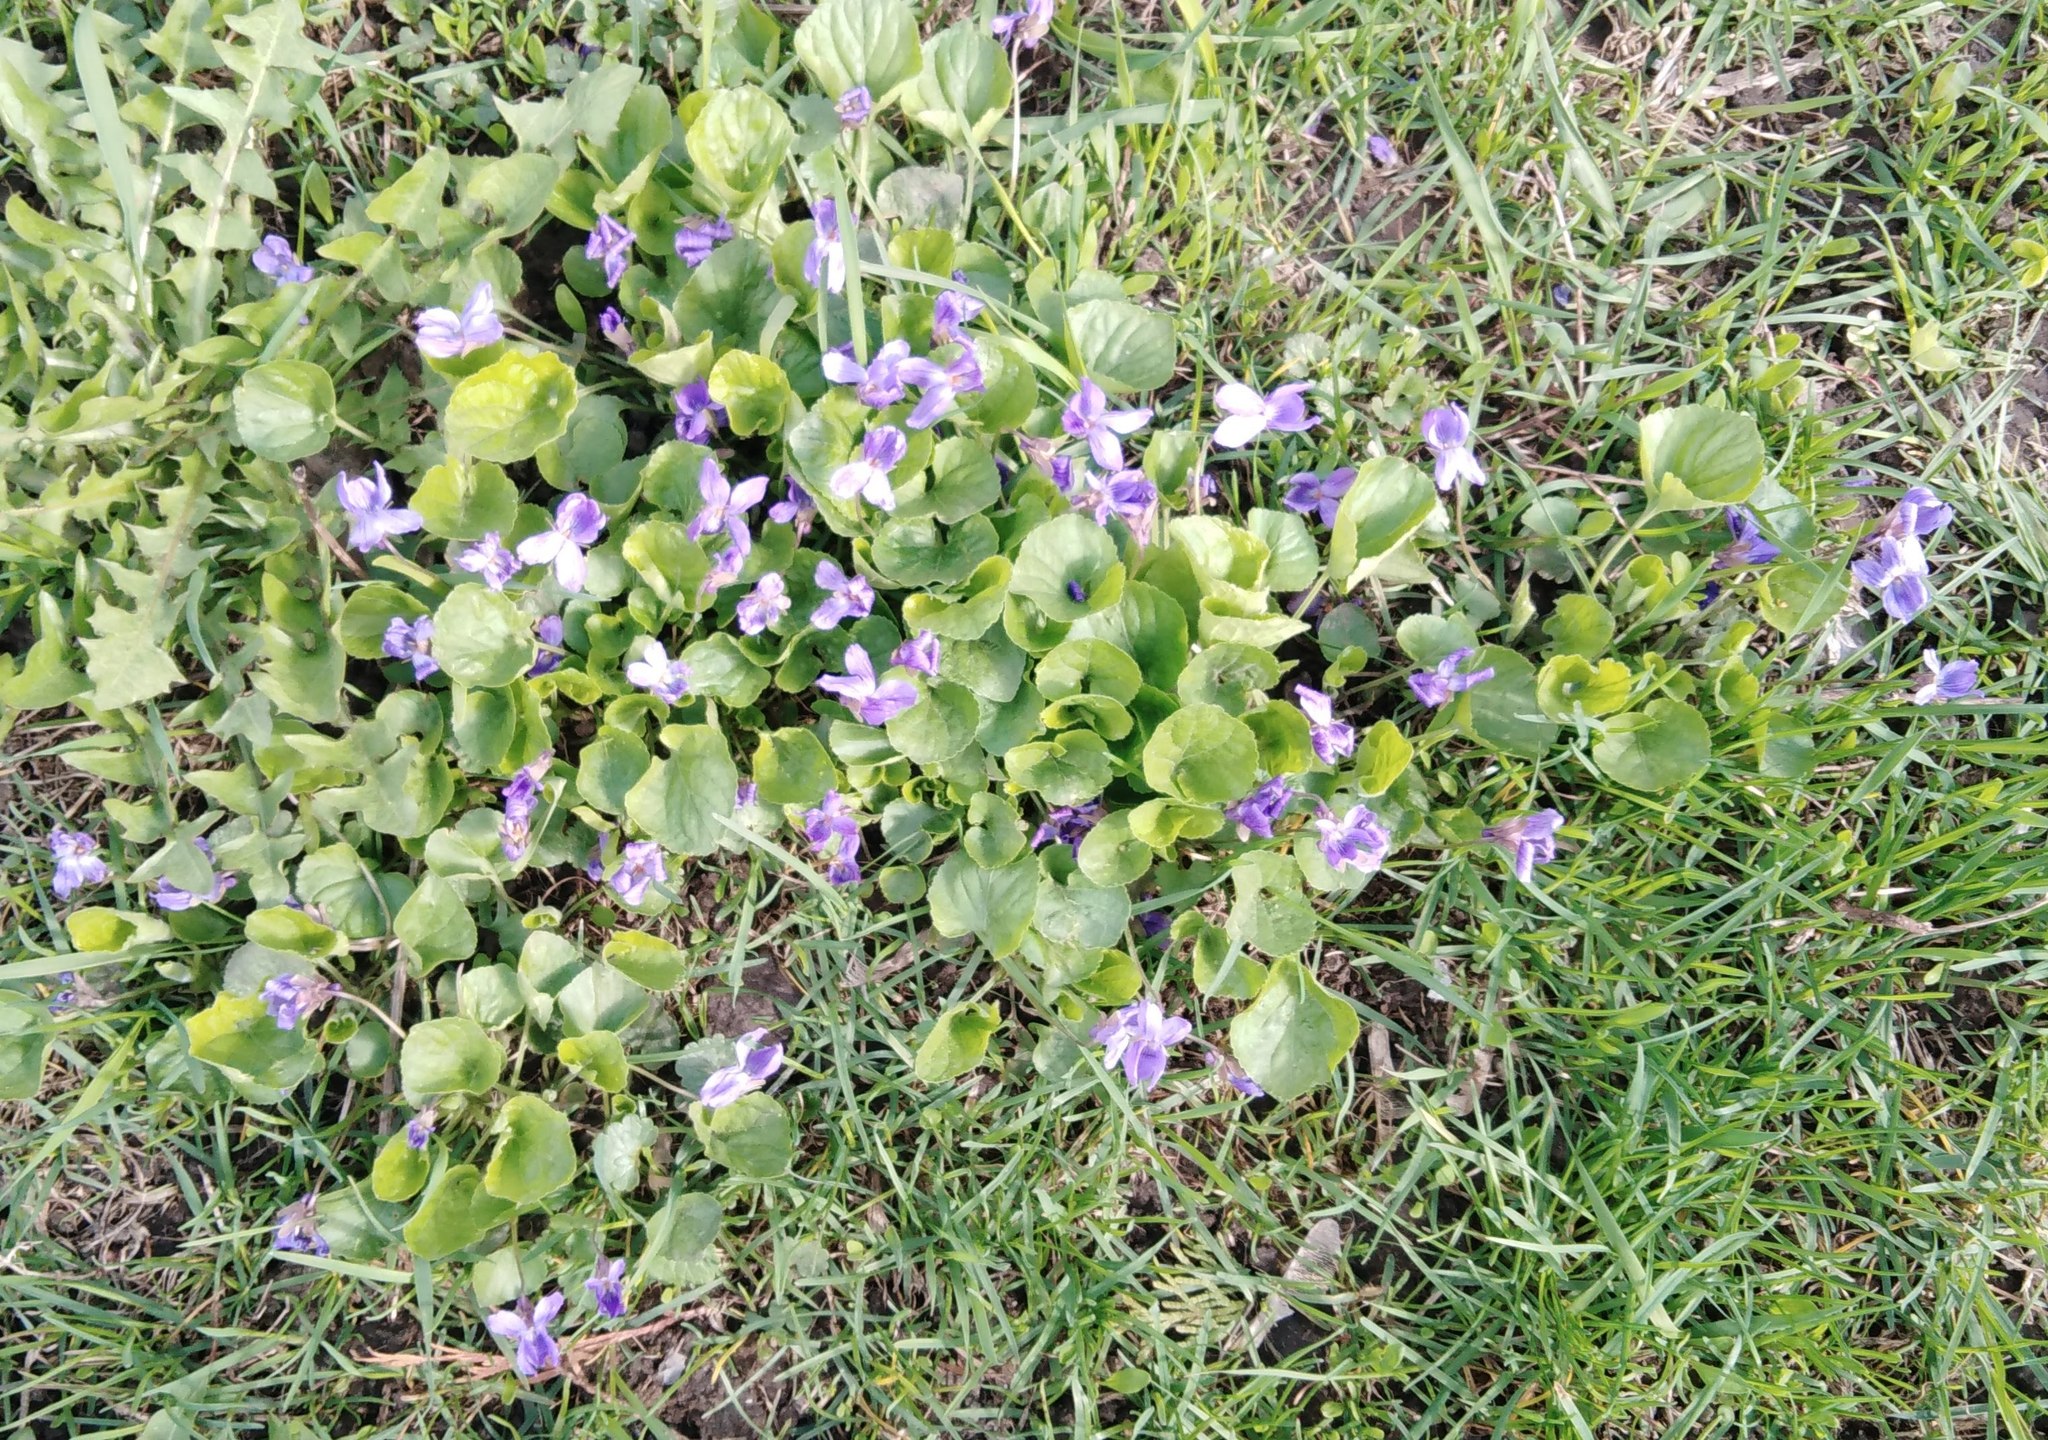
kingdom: Plantae
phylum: Tracheophyta
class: Magnoliopsida
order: Malpighiales
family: Violaceae
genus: Viola
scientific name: Viola odorata
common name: Sweet violet
